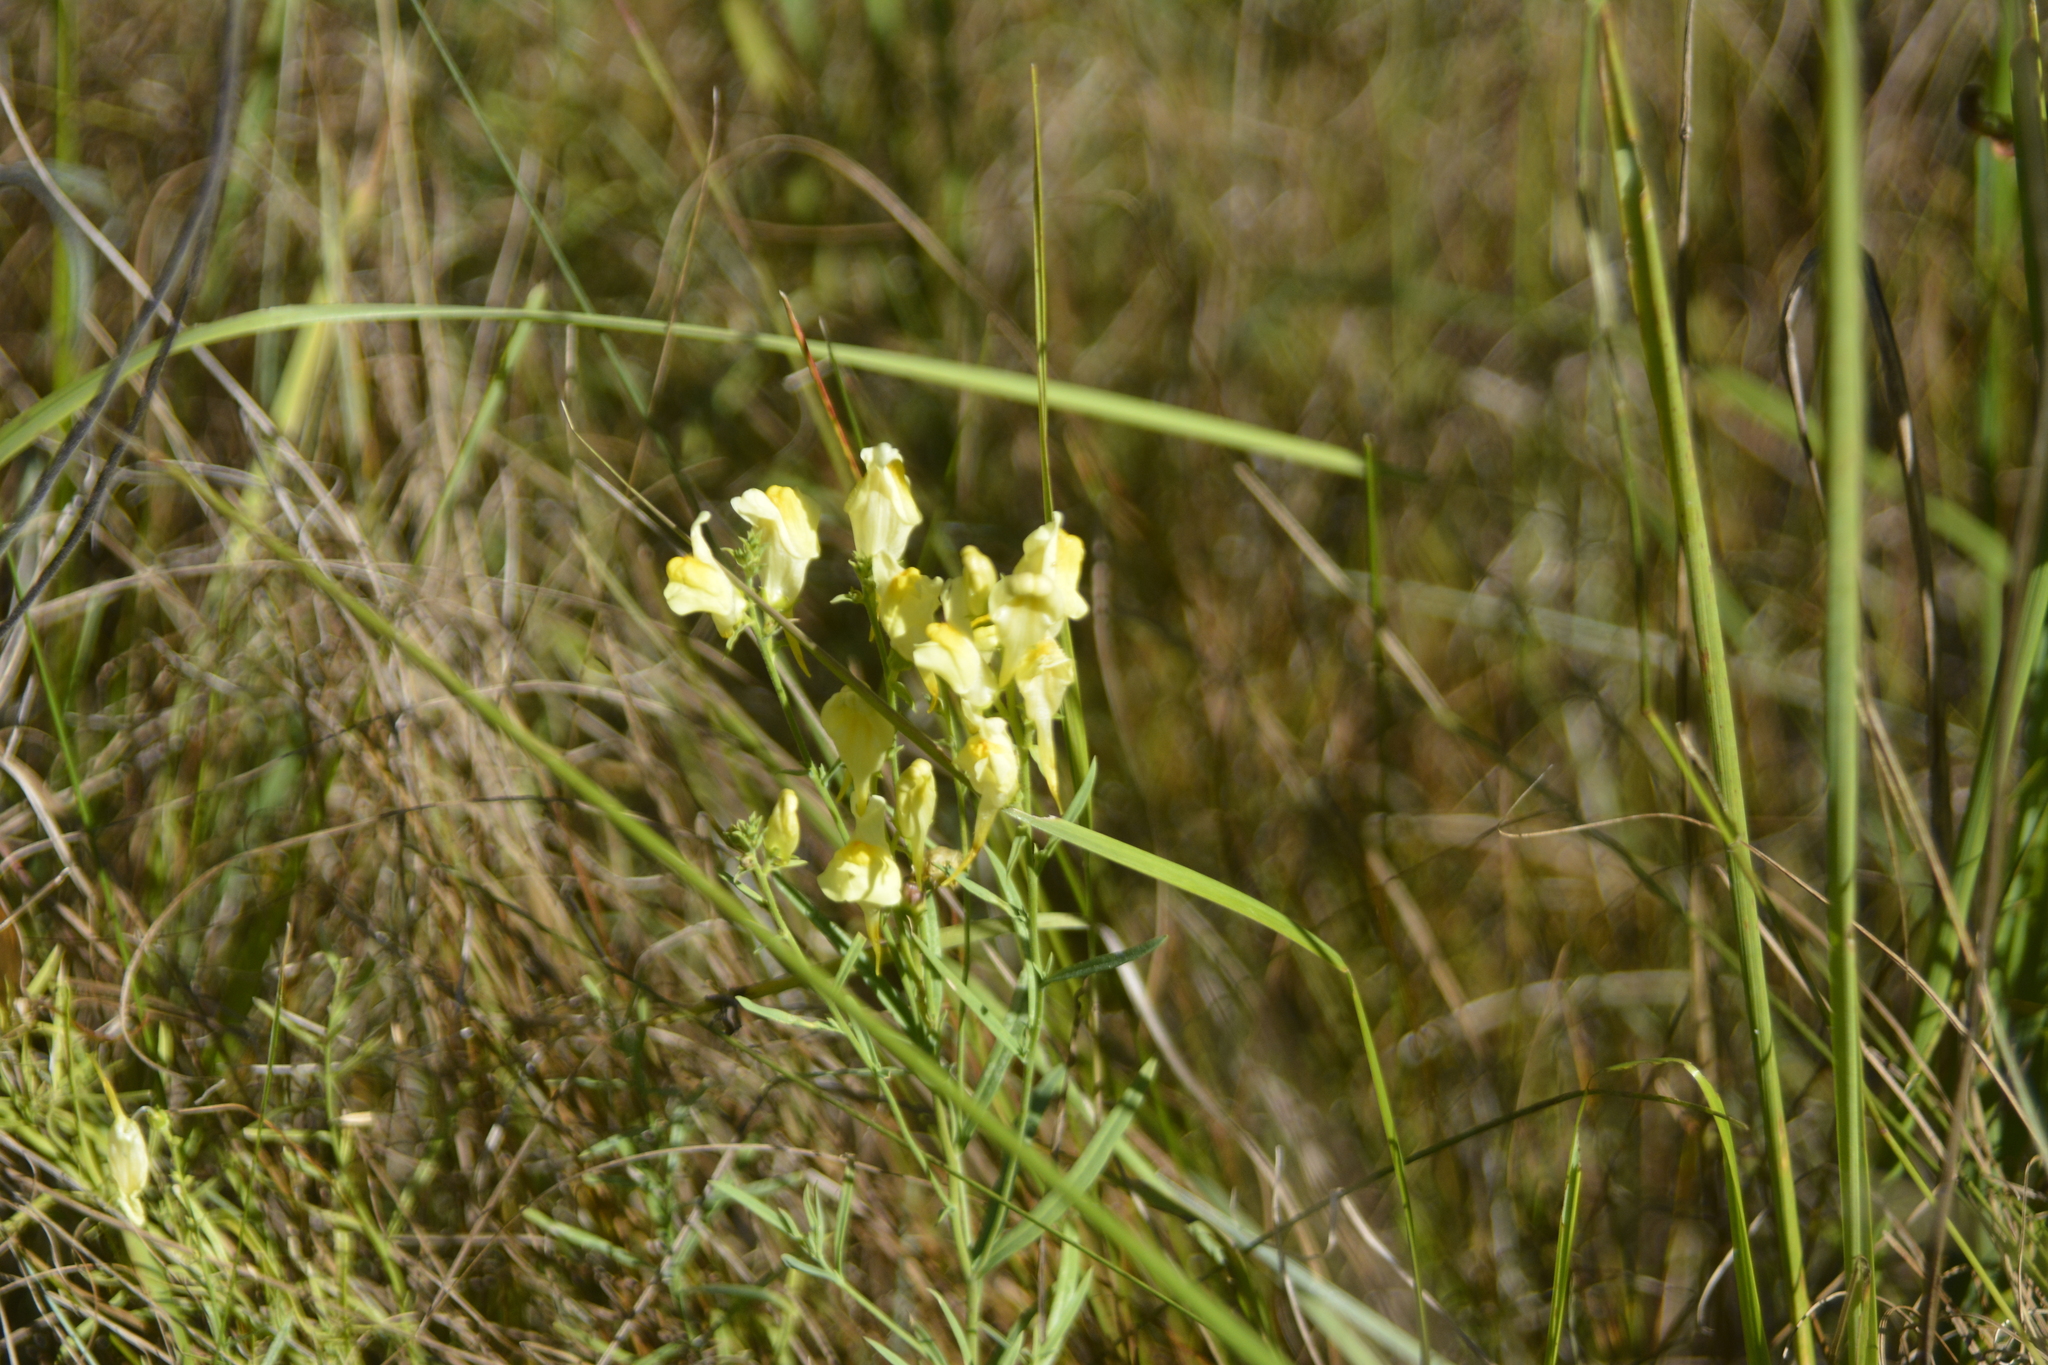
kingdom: Plantae
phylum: Tracheophyta
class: Magnoliopsida
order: Lamiales
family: Plantaginaceae
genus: Linaria
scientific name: Linaria vulgaris
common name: Butter and eggs
